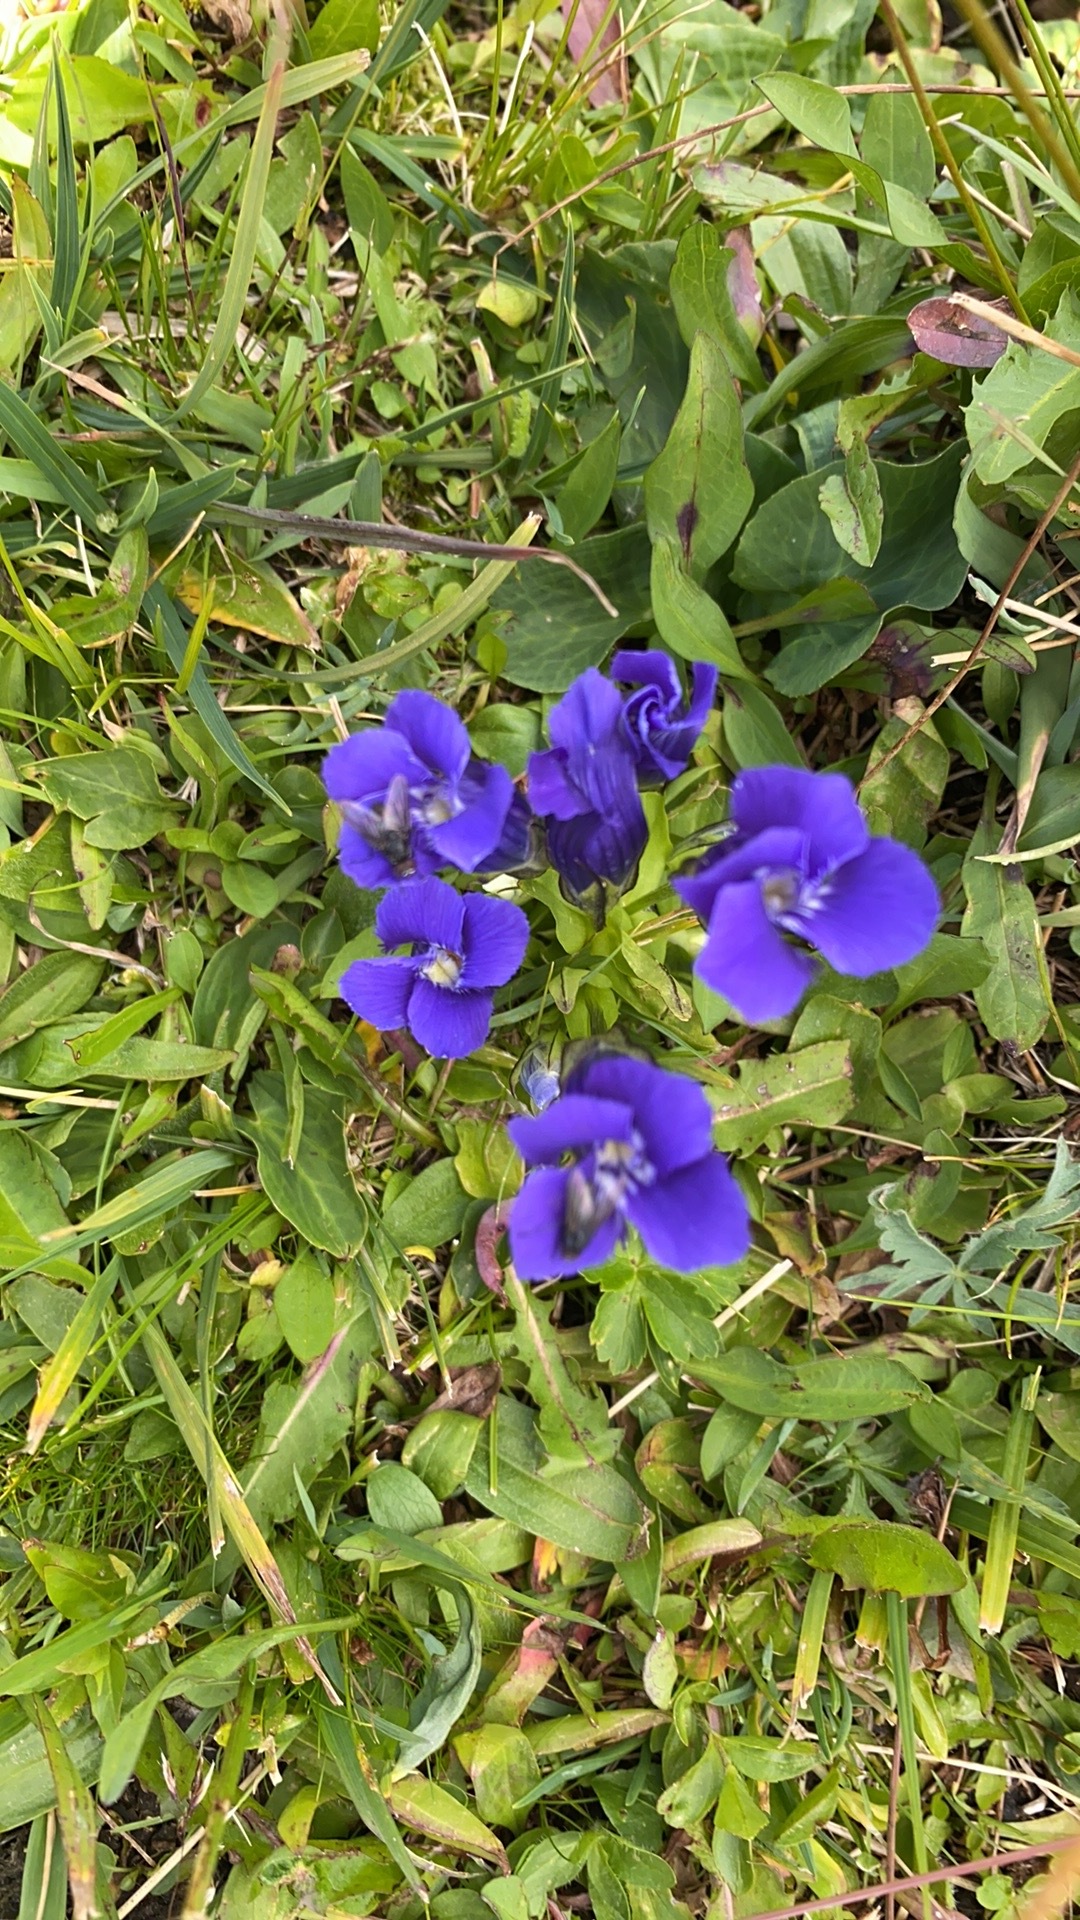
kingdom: Plantae
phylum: Tracheophyta
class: Magnoliopsida
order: Gentianales
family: Gentianaceae
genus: Gentianopsis
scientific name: Gentianopsis thermalis
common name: Rocky mountain fringed-gentian
